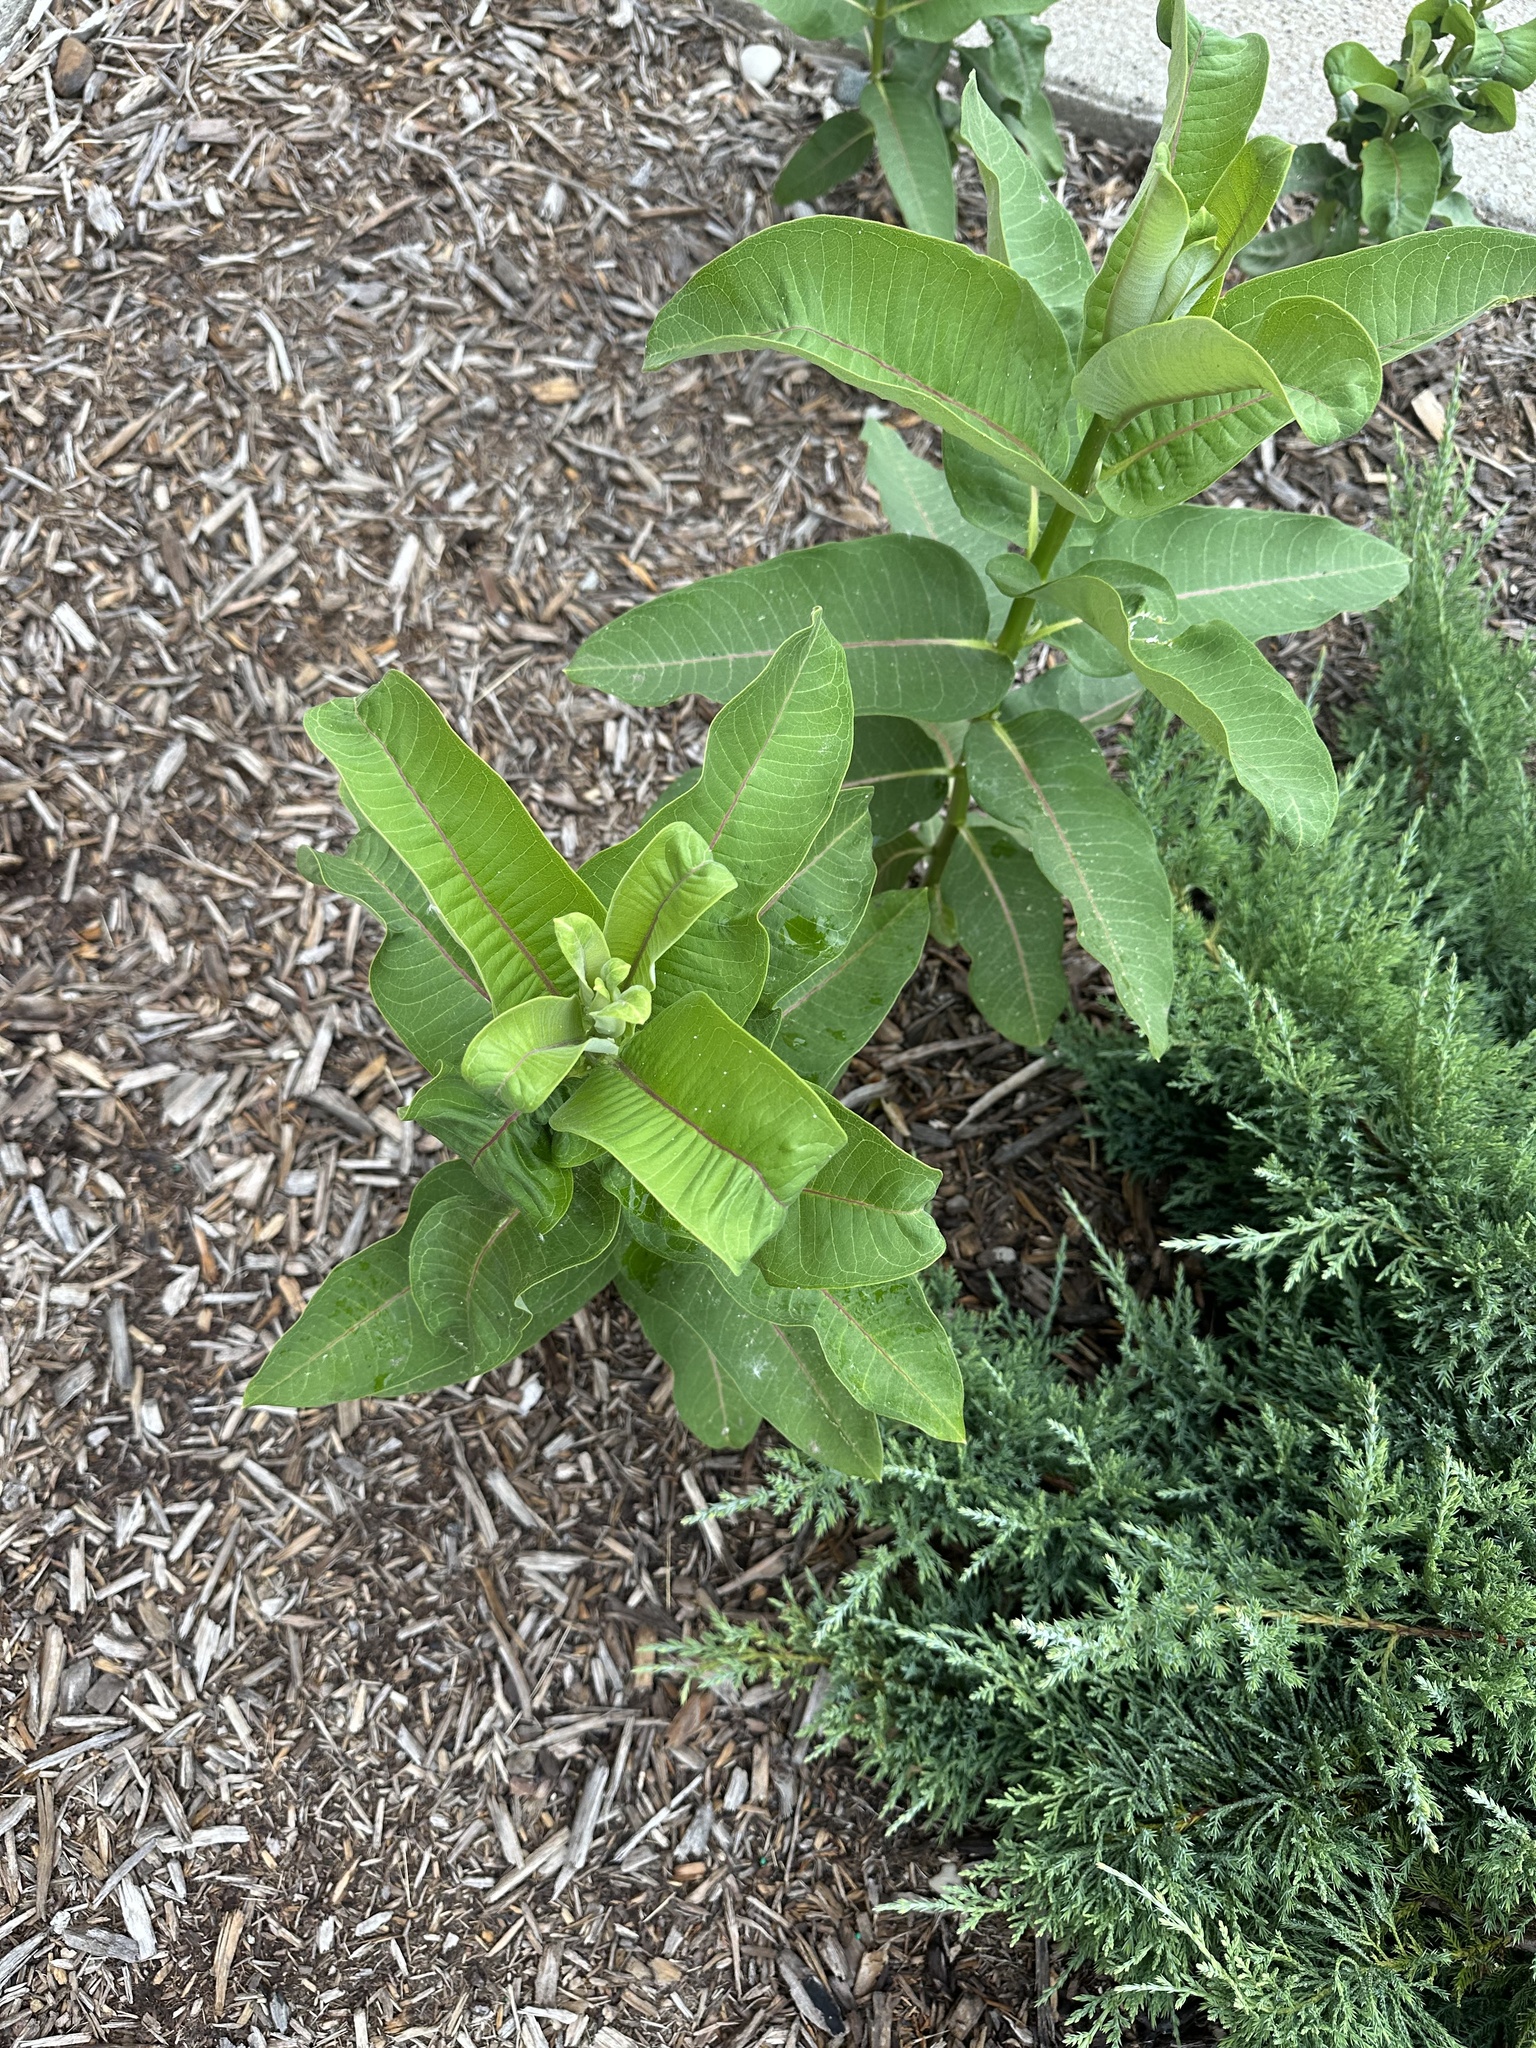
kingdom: Plantae
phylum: Tracheophyta
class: Magnoliopsida
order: Gentianales
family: Apocynaceae
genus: Asclepias
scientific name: Asclepias syriaca
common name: Common milkweed
